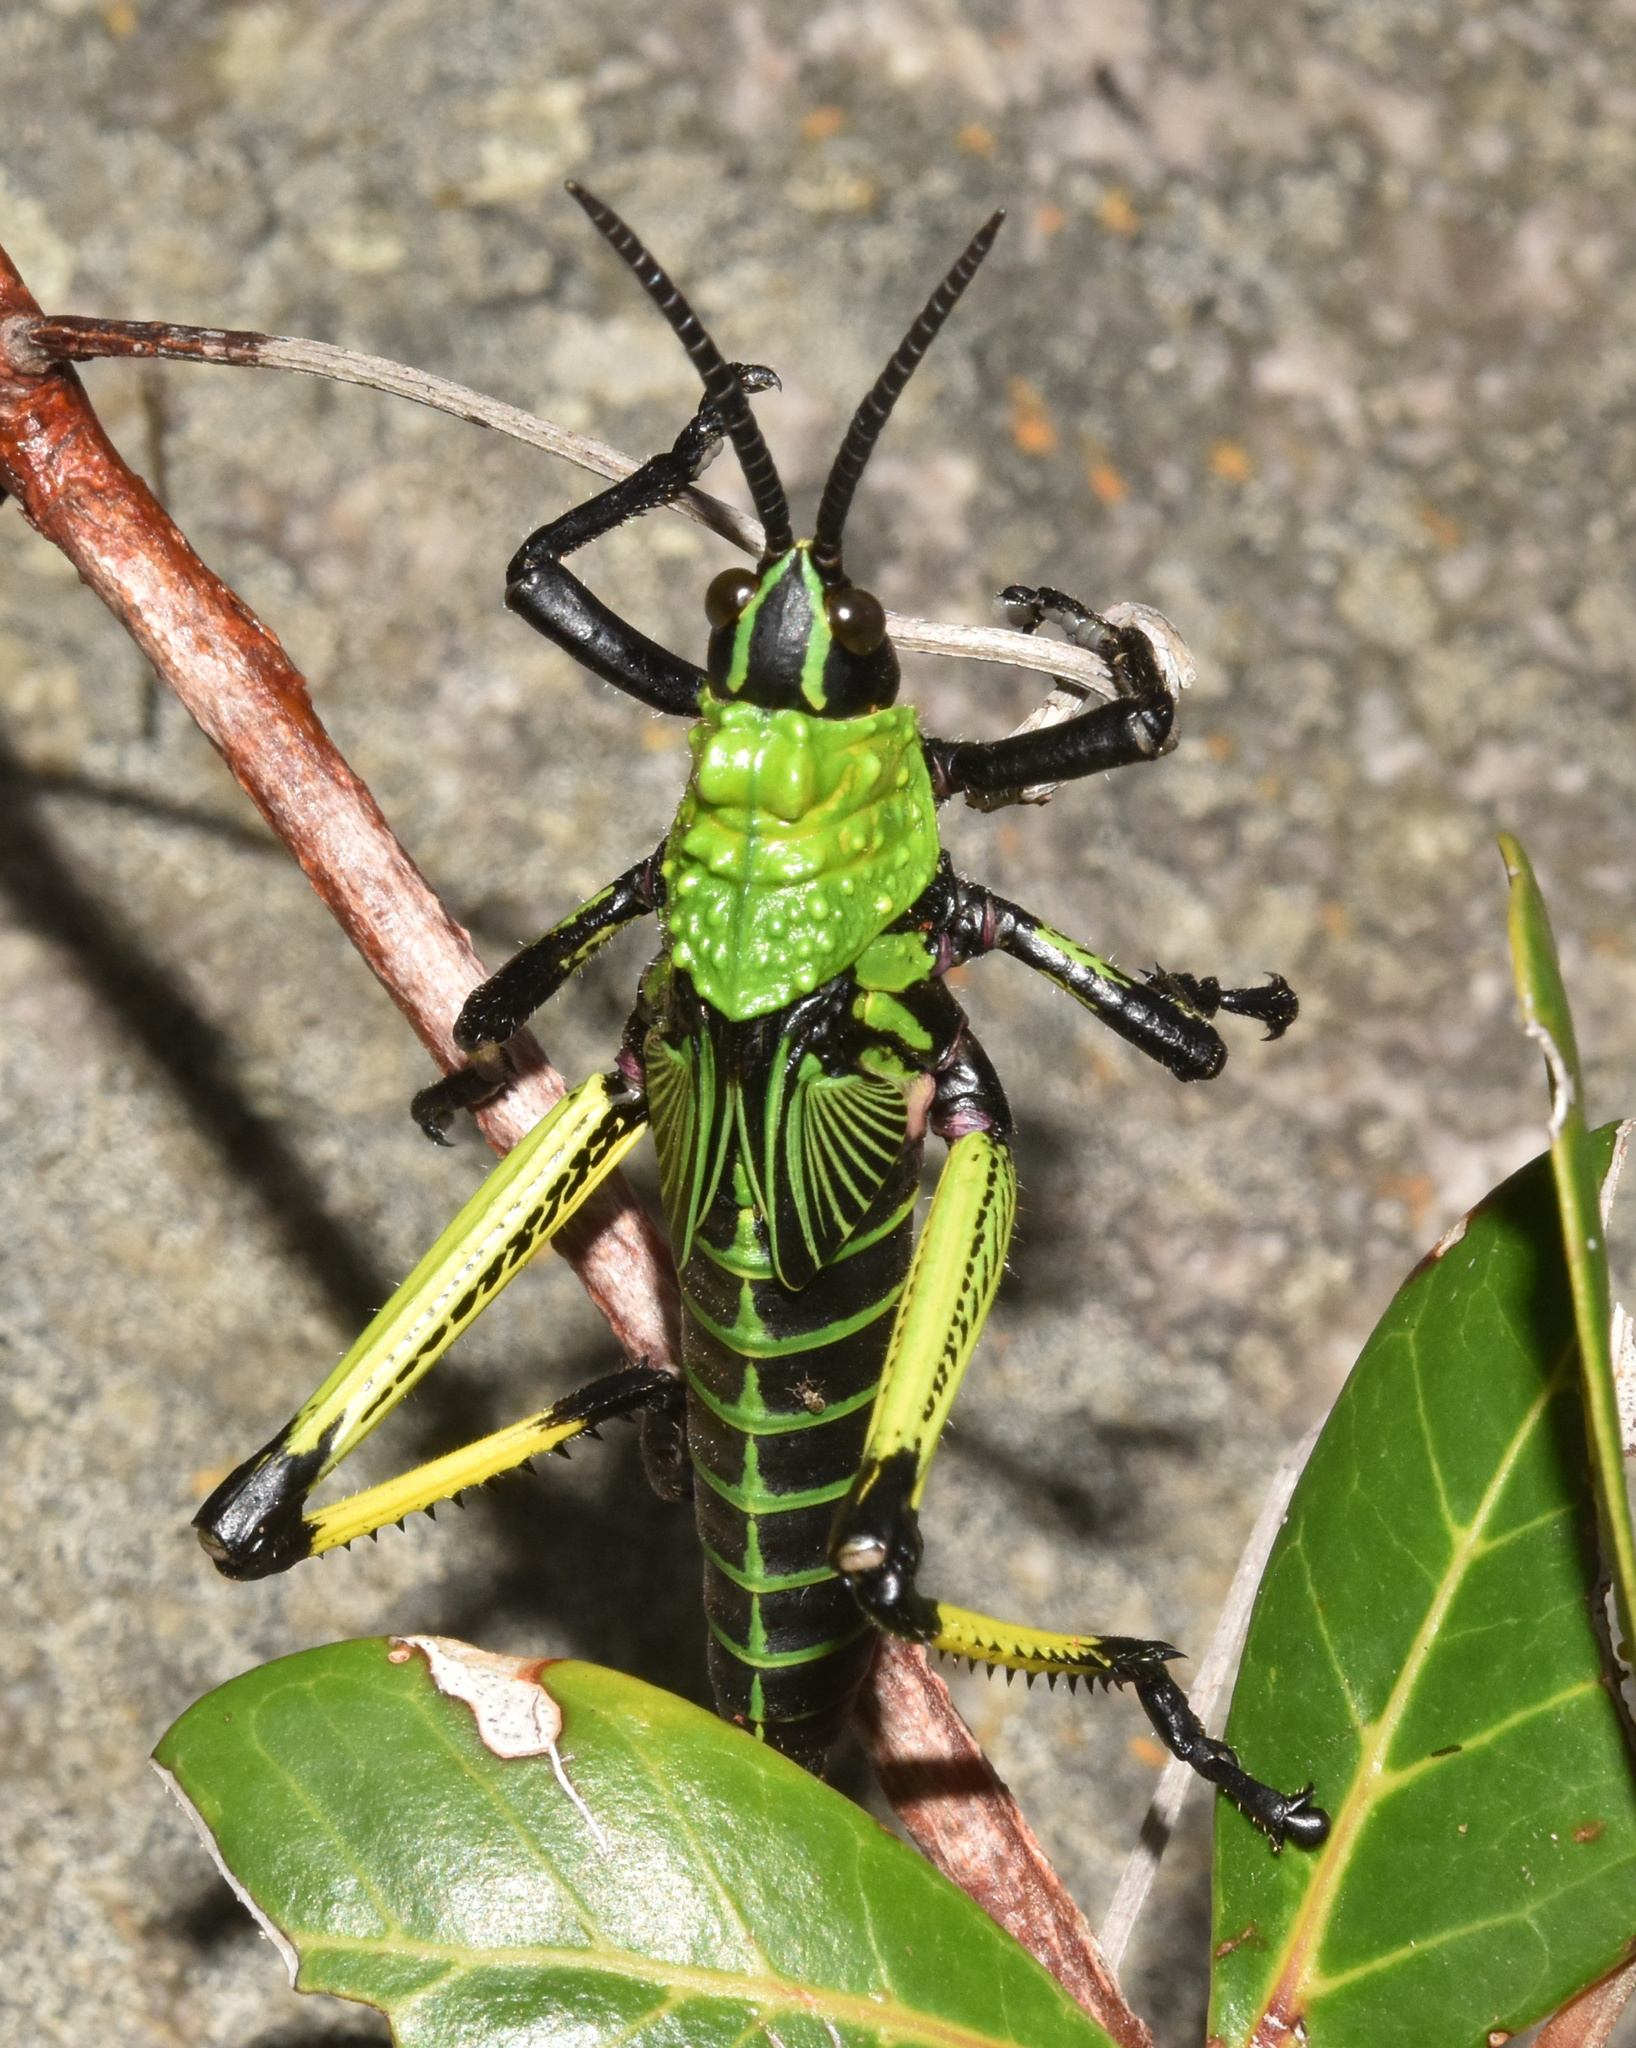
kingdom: Animalia
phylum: Arthropoda
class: Insecta
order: Orthoptera
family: Pyrgomorphidae
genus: Phymateus
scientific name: Phymateus leprosus
